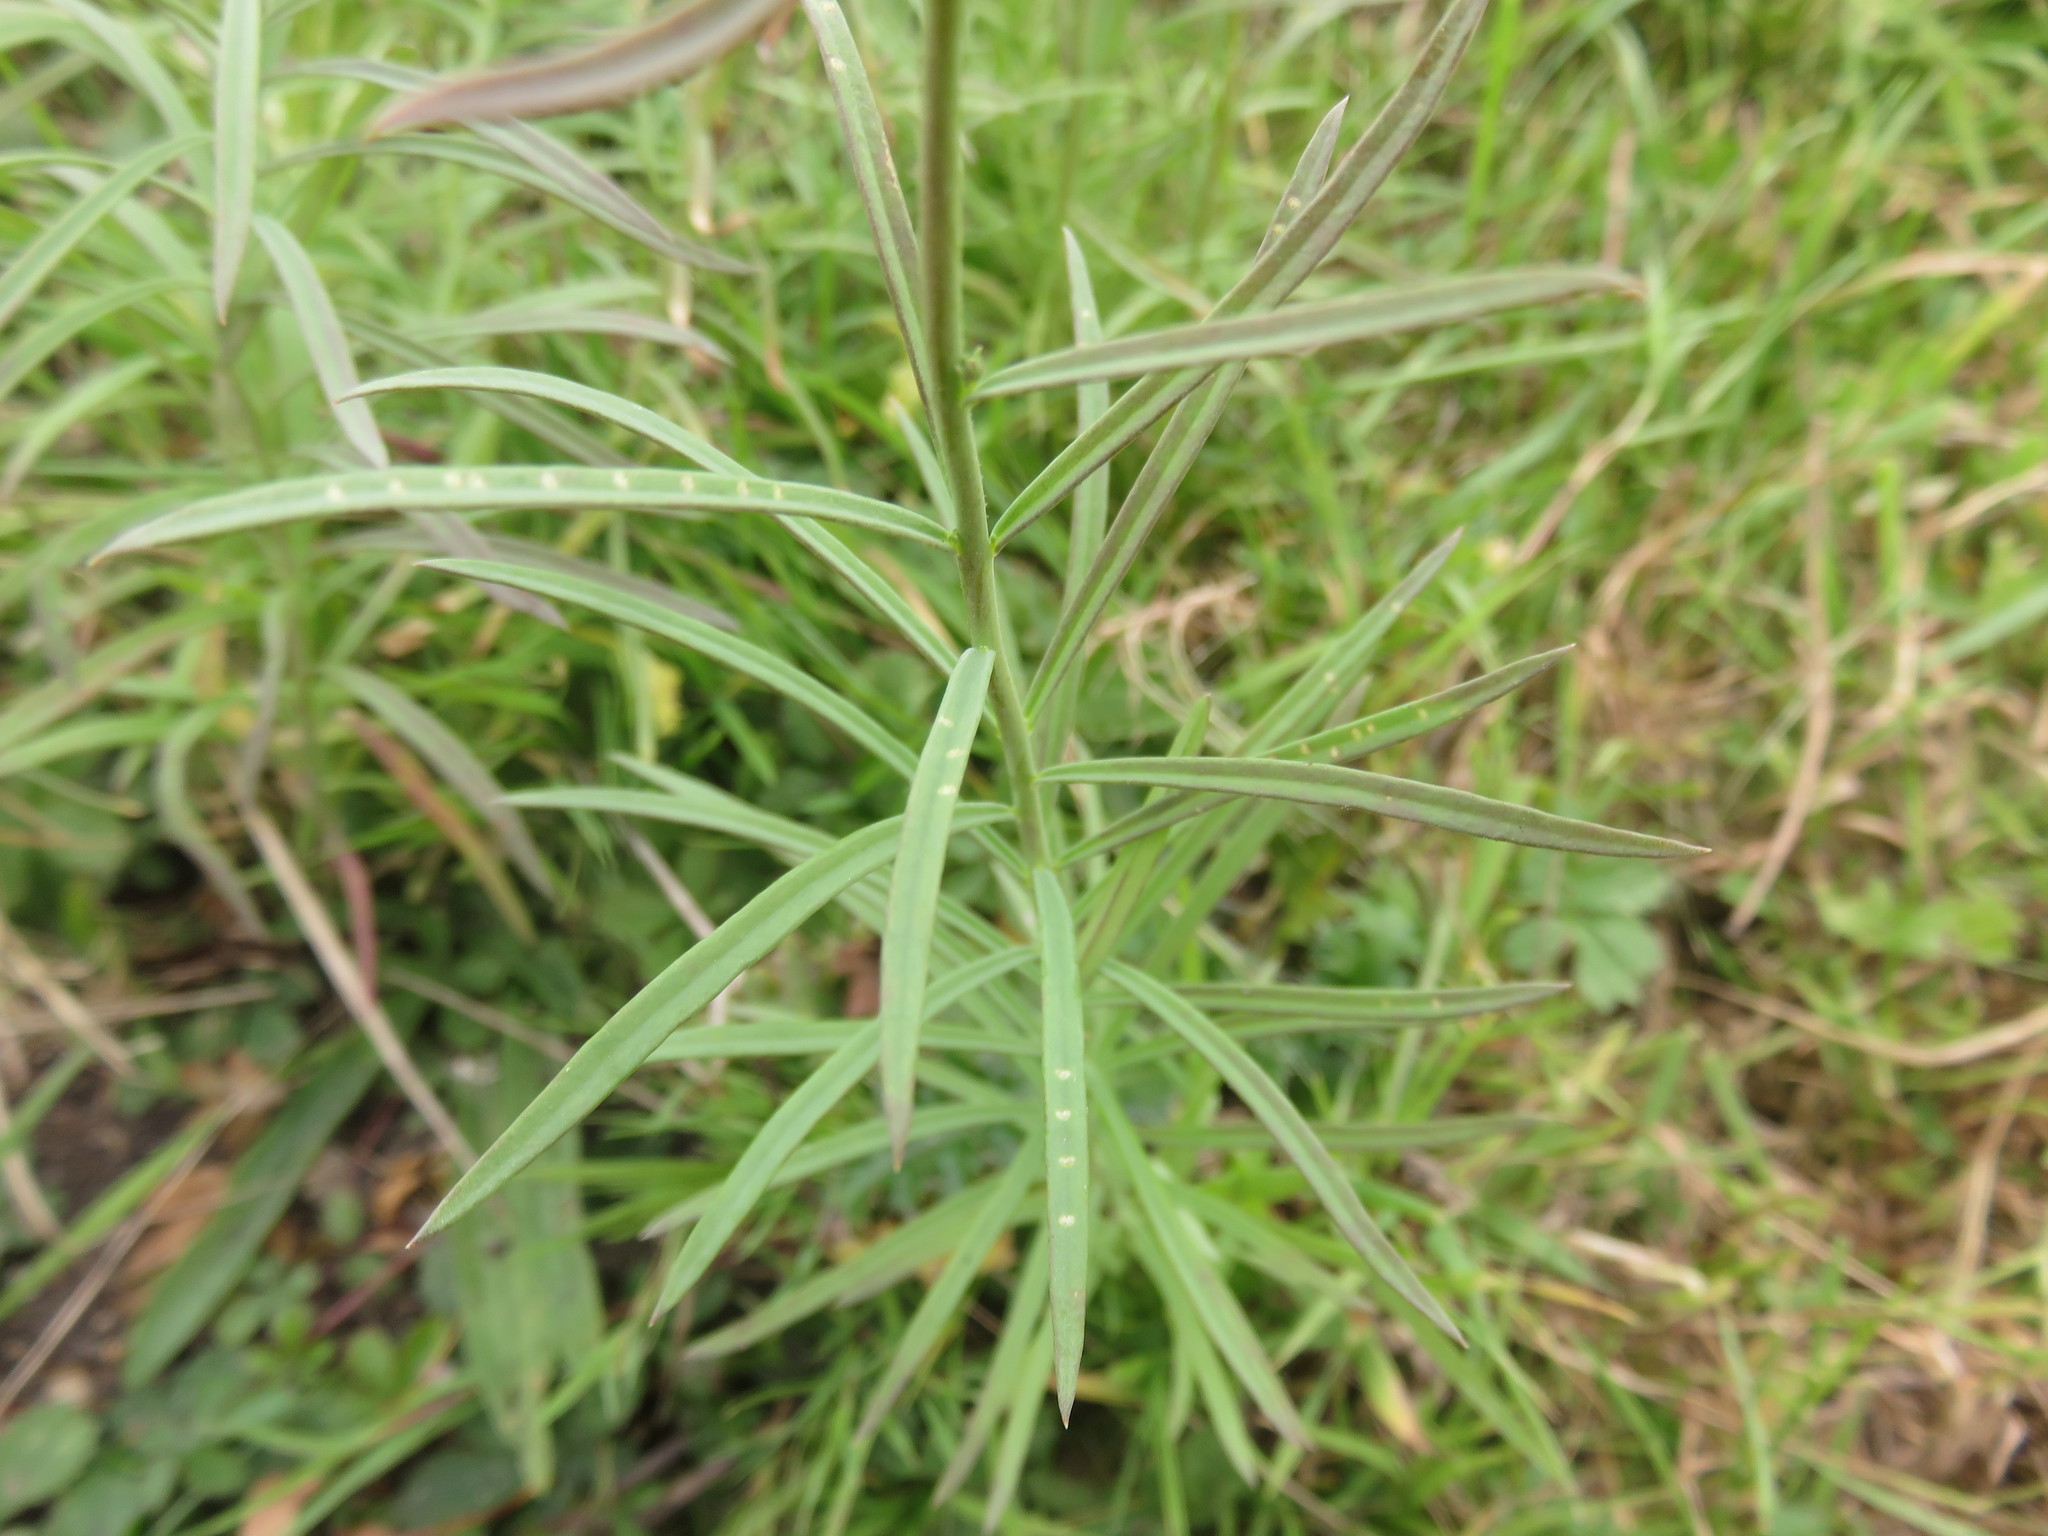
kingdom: Plantae
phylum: Tracheophyta
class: Magnoliopsida
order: Lamiales
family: Plantaginaceae
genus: Linaria
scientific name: Linaria vulgaris
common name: Butter and eggs
